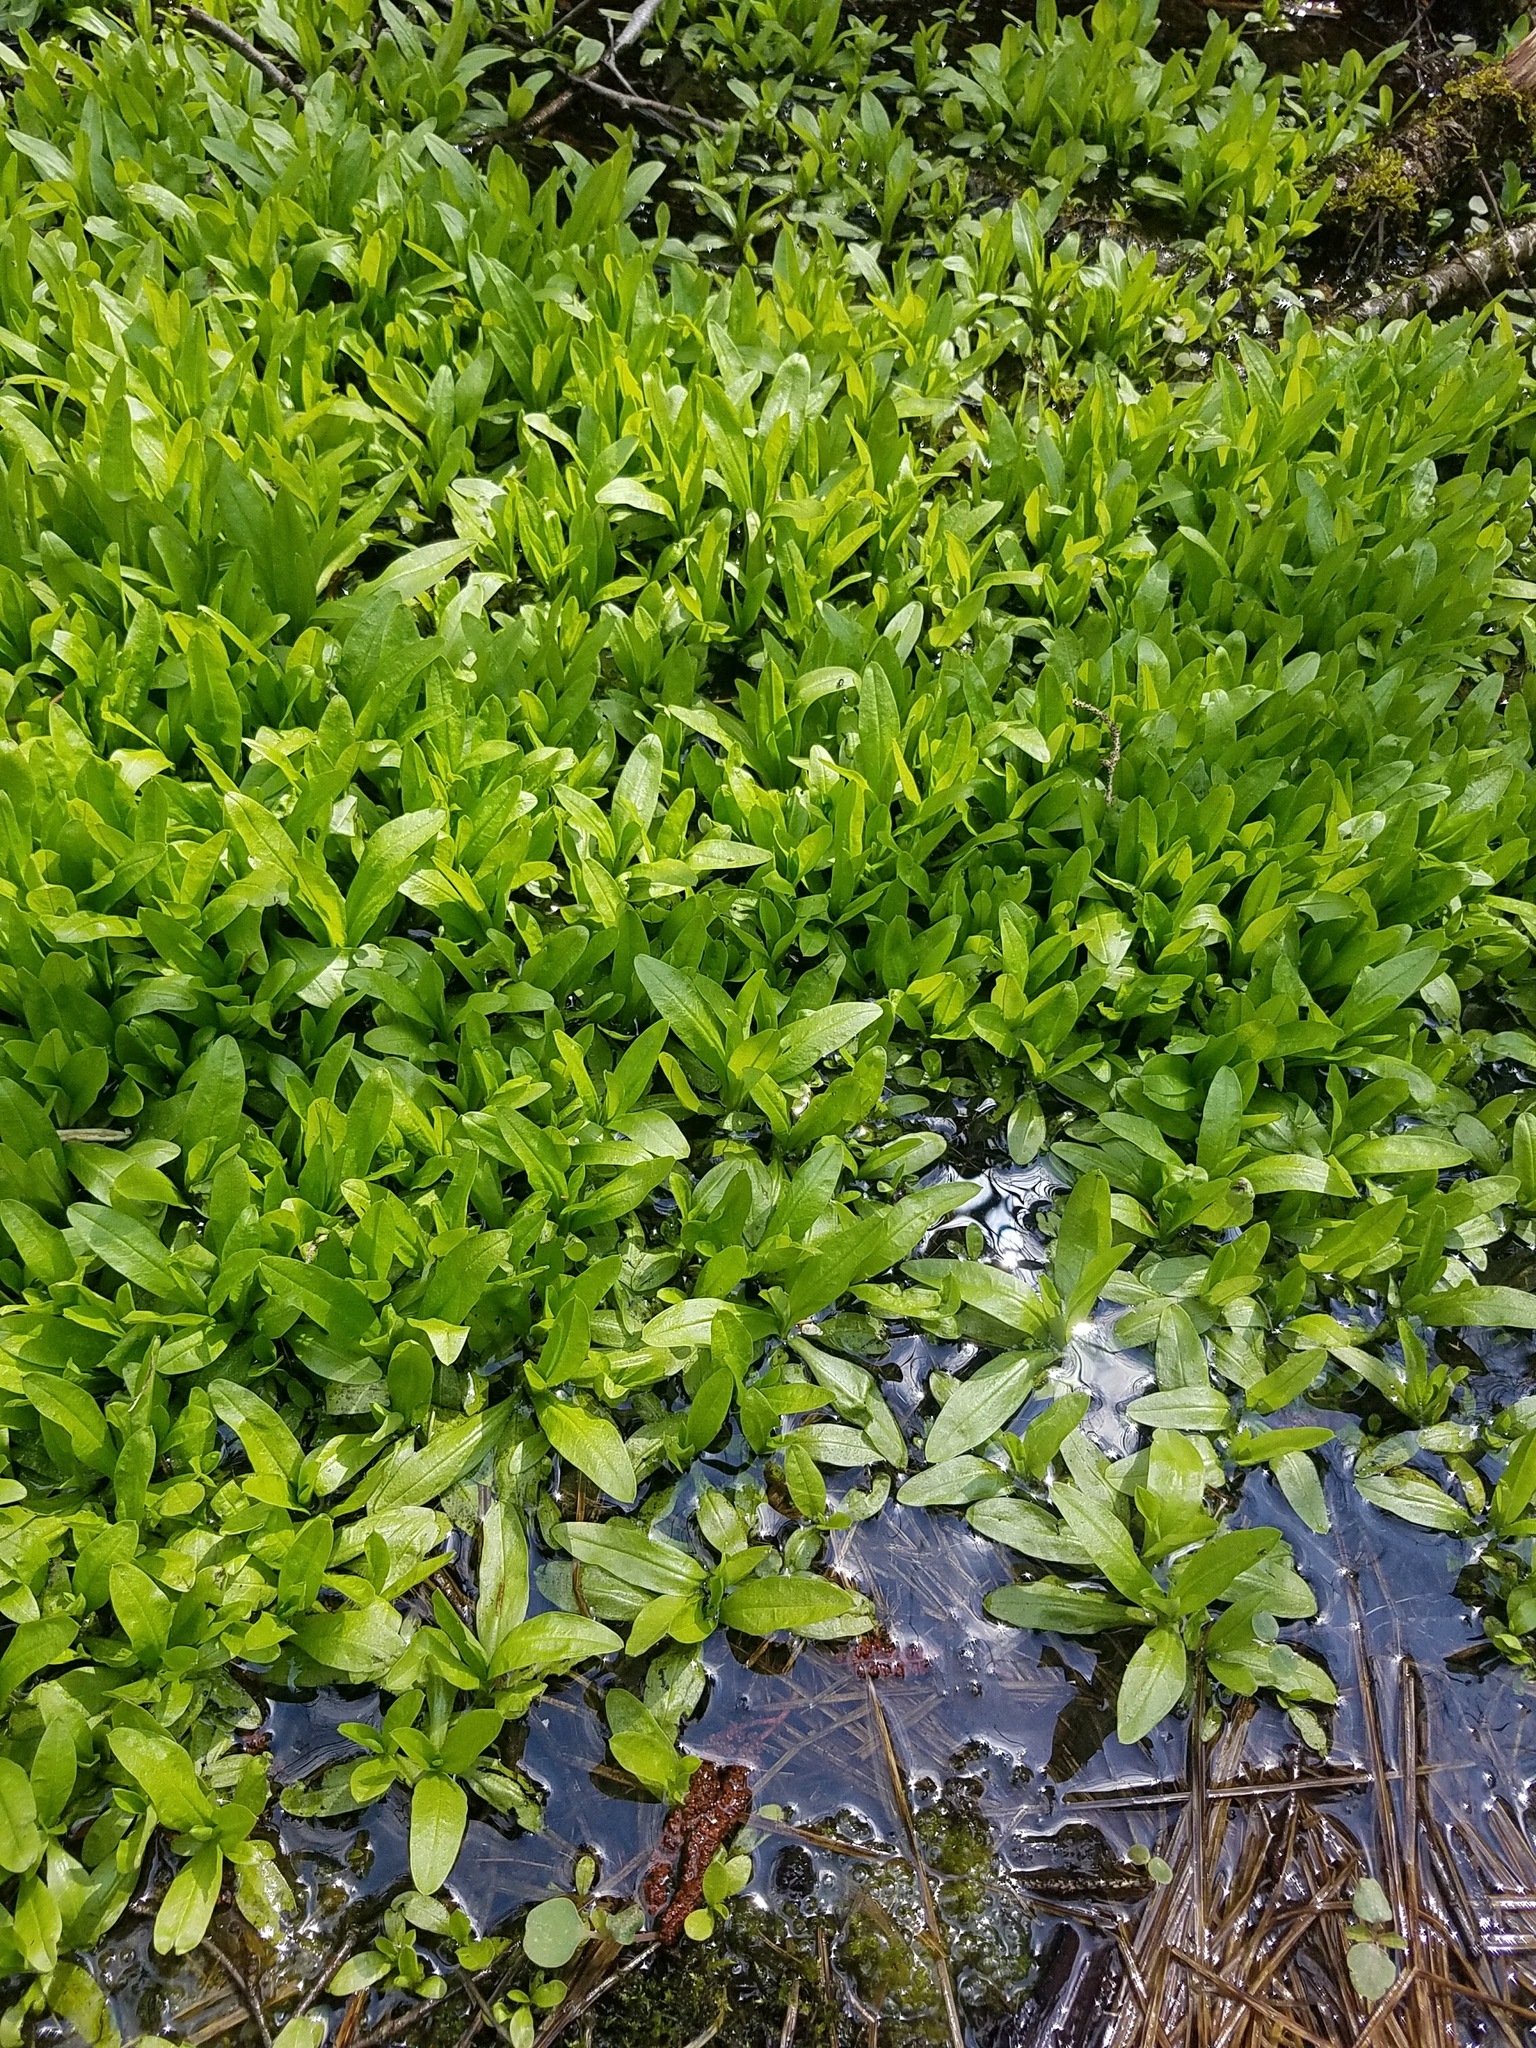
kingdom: Plantae
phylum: Tracheophyta
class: Magnoliopsida
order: Boraginales
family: Boraginaceae
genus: Myosotis
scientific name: Myosotis scorpioides
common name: Water forget-me-not
